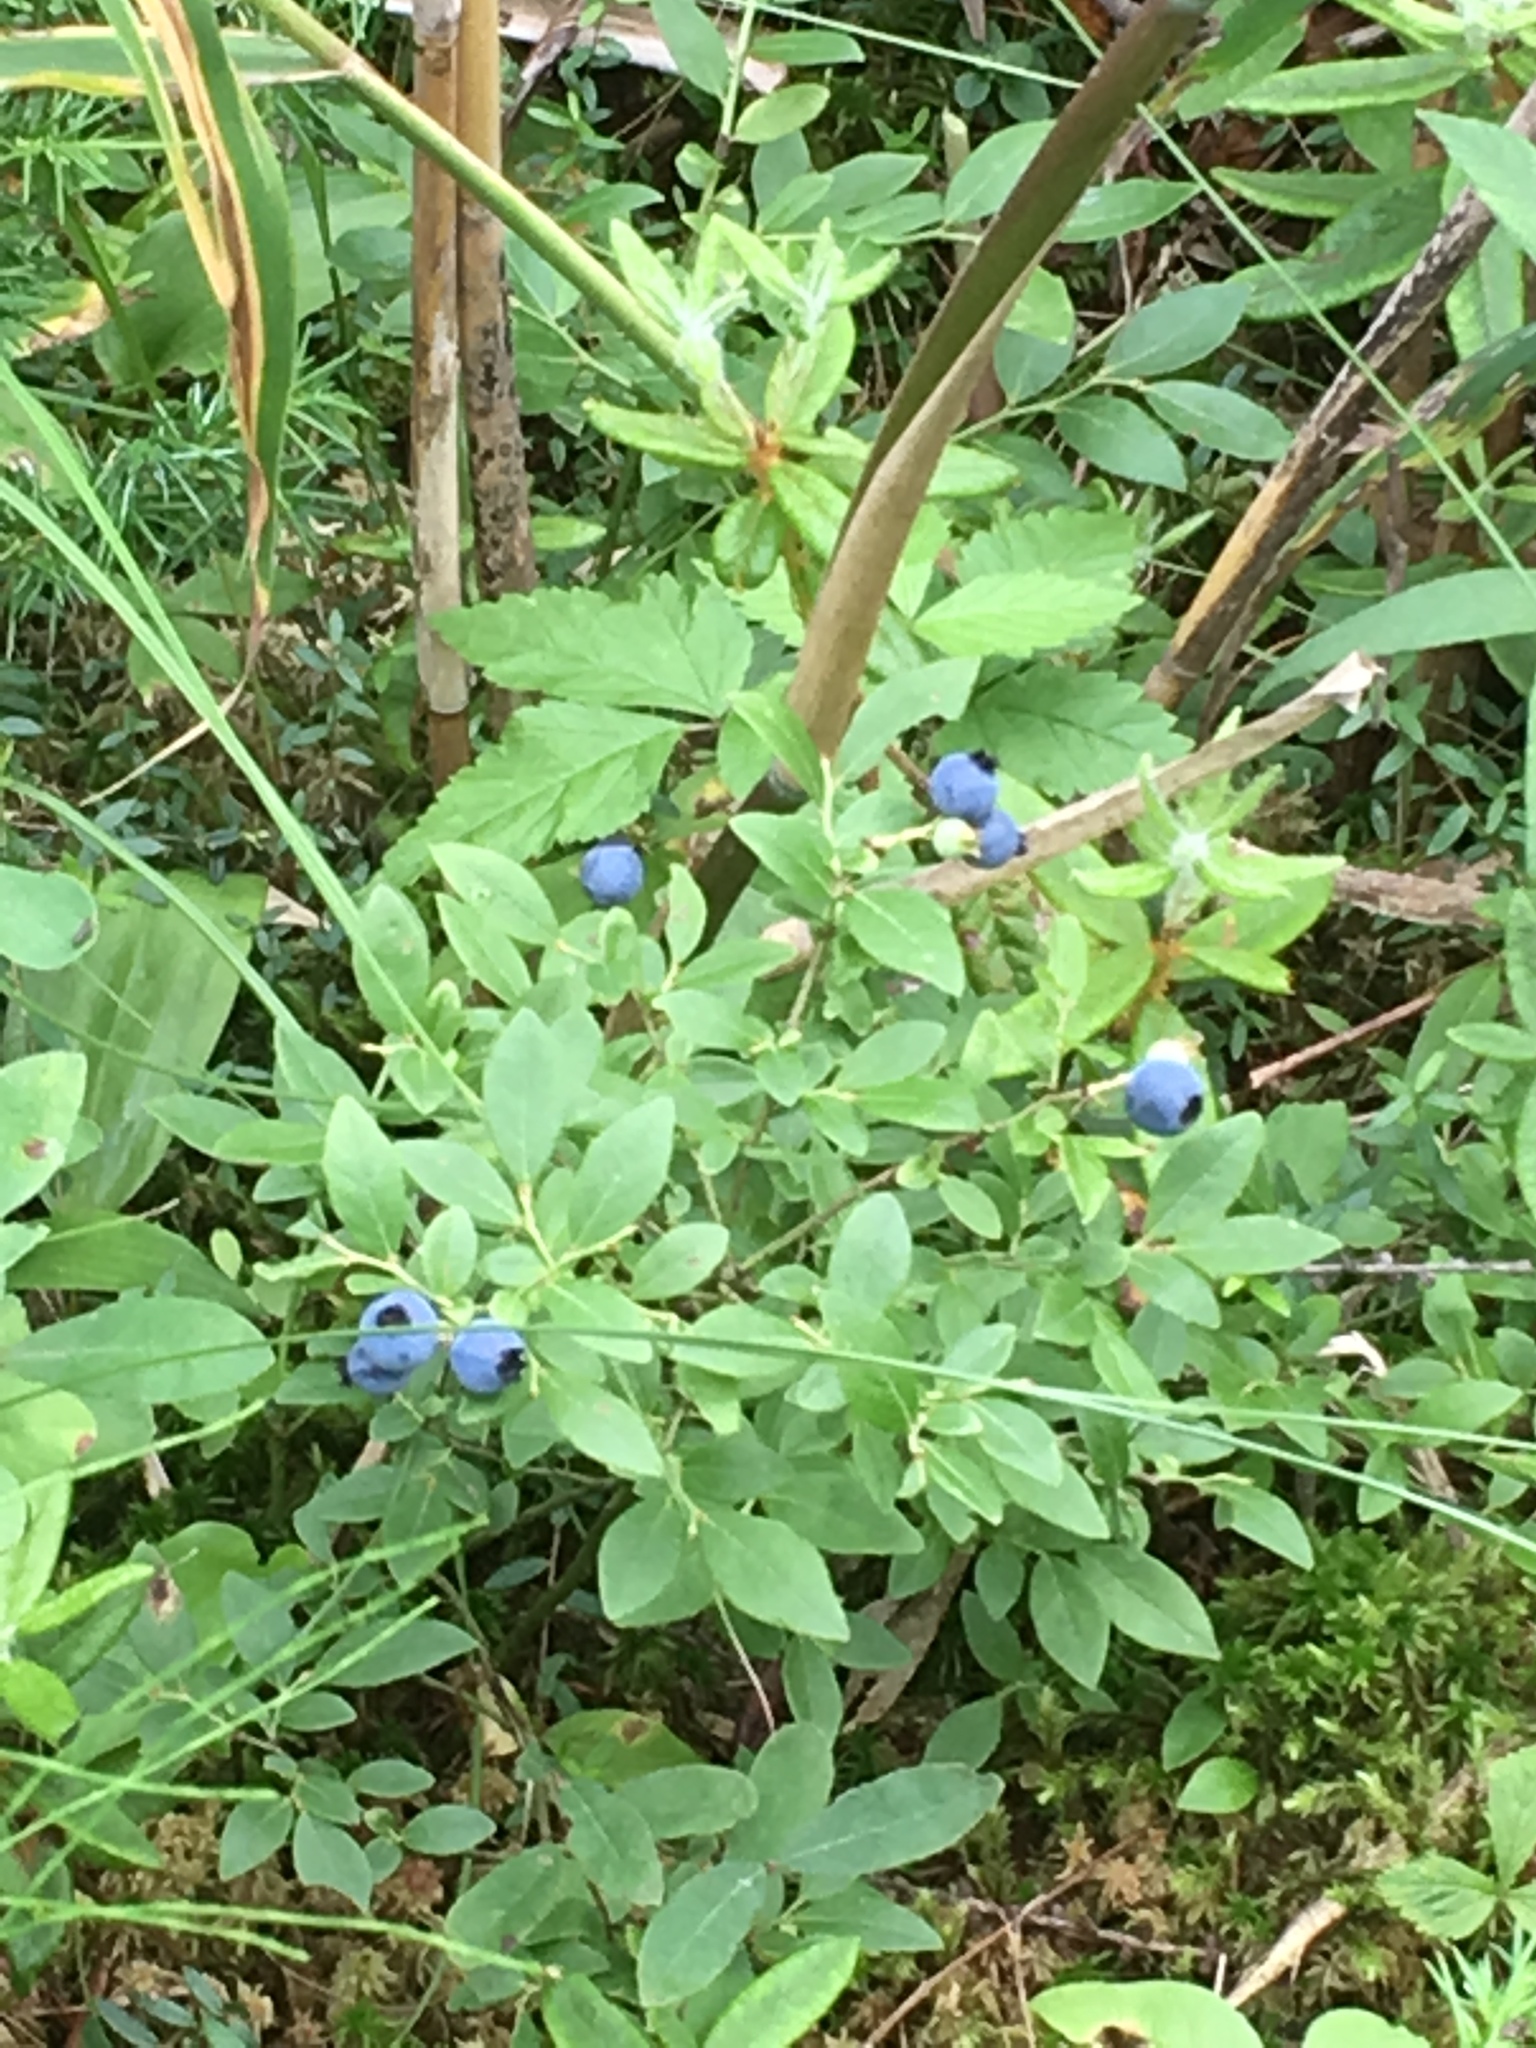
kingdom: Plantae
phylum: Tracheophyta
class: Magnoliopsida
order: Ericales
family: Ericaceae
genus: Vaccinium
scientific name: Vaccinium angustifolium
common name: Early lowbush blueberry
